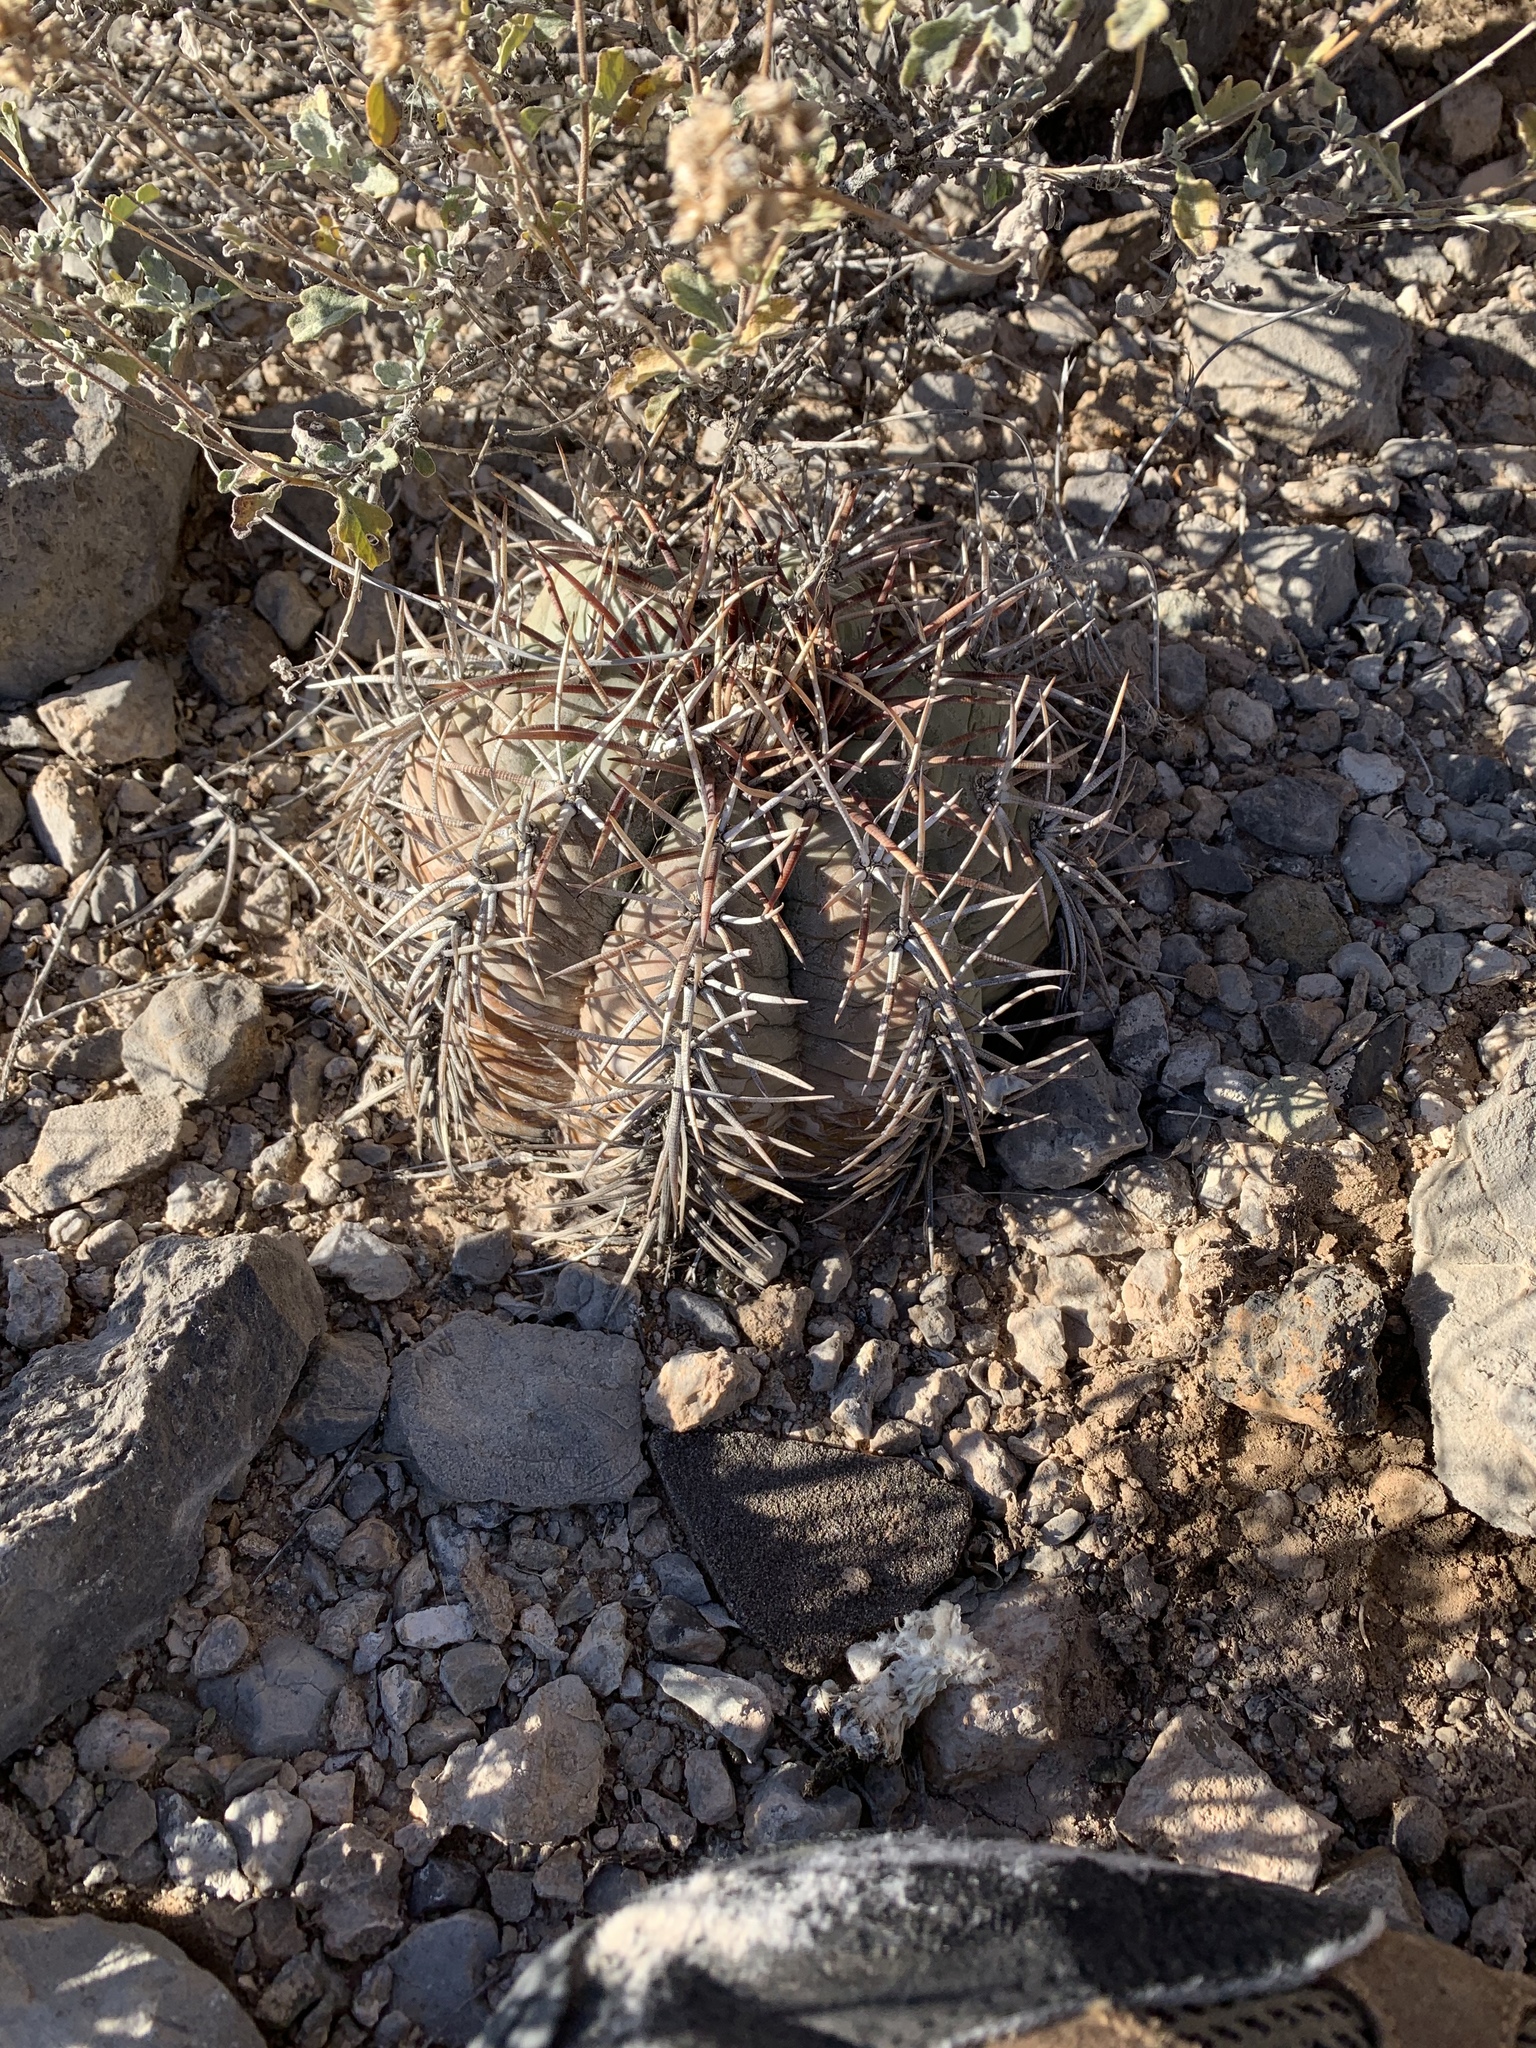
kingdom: Plantae
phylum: Tracheophyta
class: Magnoliopsida
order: Caryophyllales
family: Cactaceae
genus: Echinocactus
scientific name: Echinocactus horizonthalonius
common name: Devilshead
